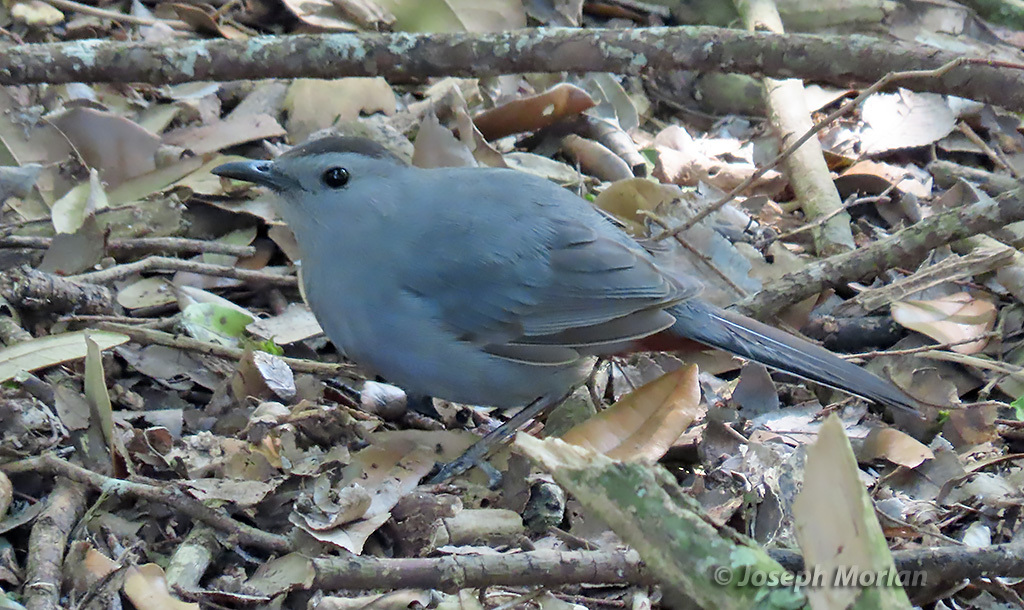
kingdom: Animalia
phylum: Chordata
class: Aves
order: Passeriformes
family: Mimidae
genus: Dumetella
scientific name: Dumetella carolinensis
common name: Gray catbird
